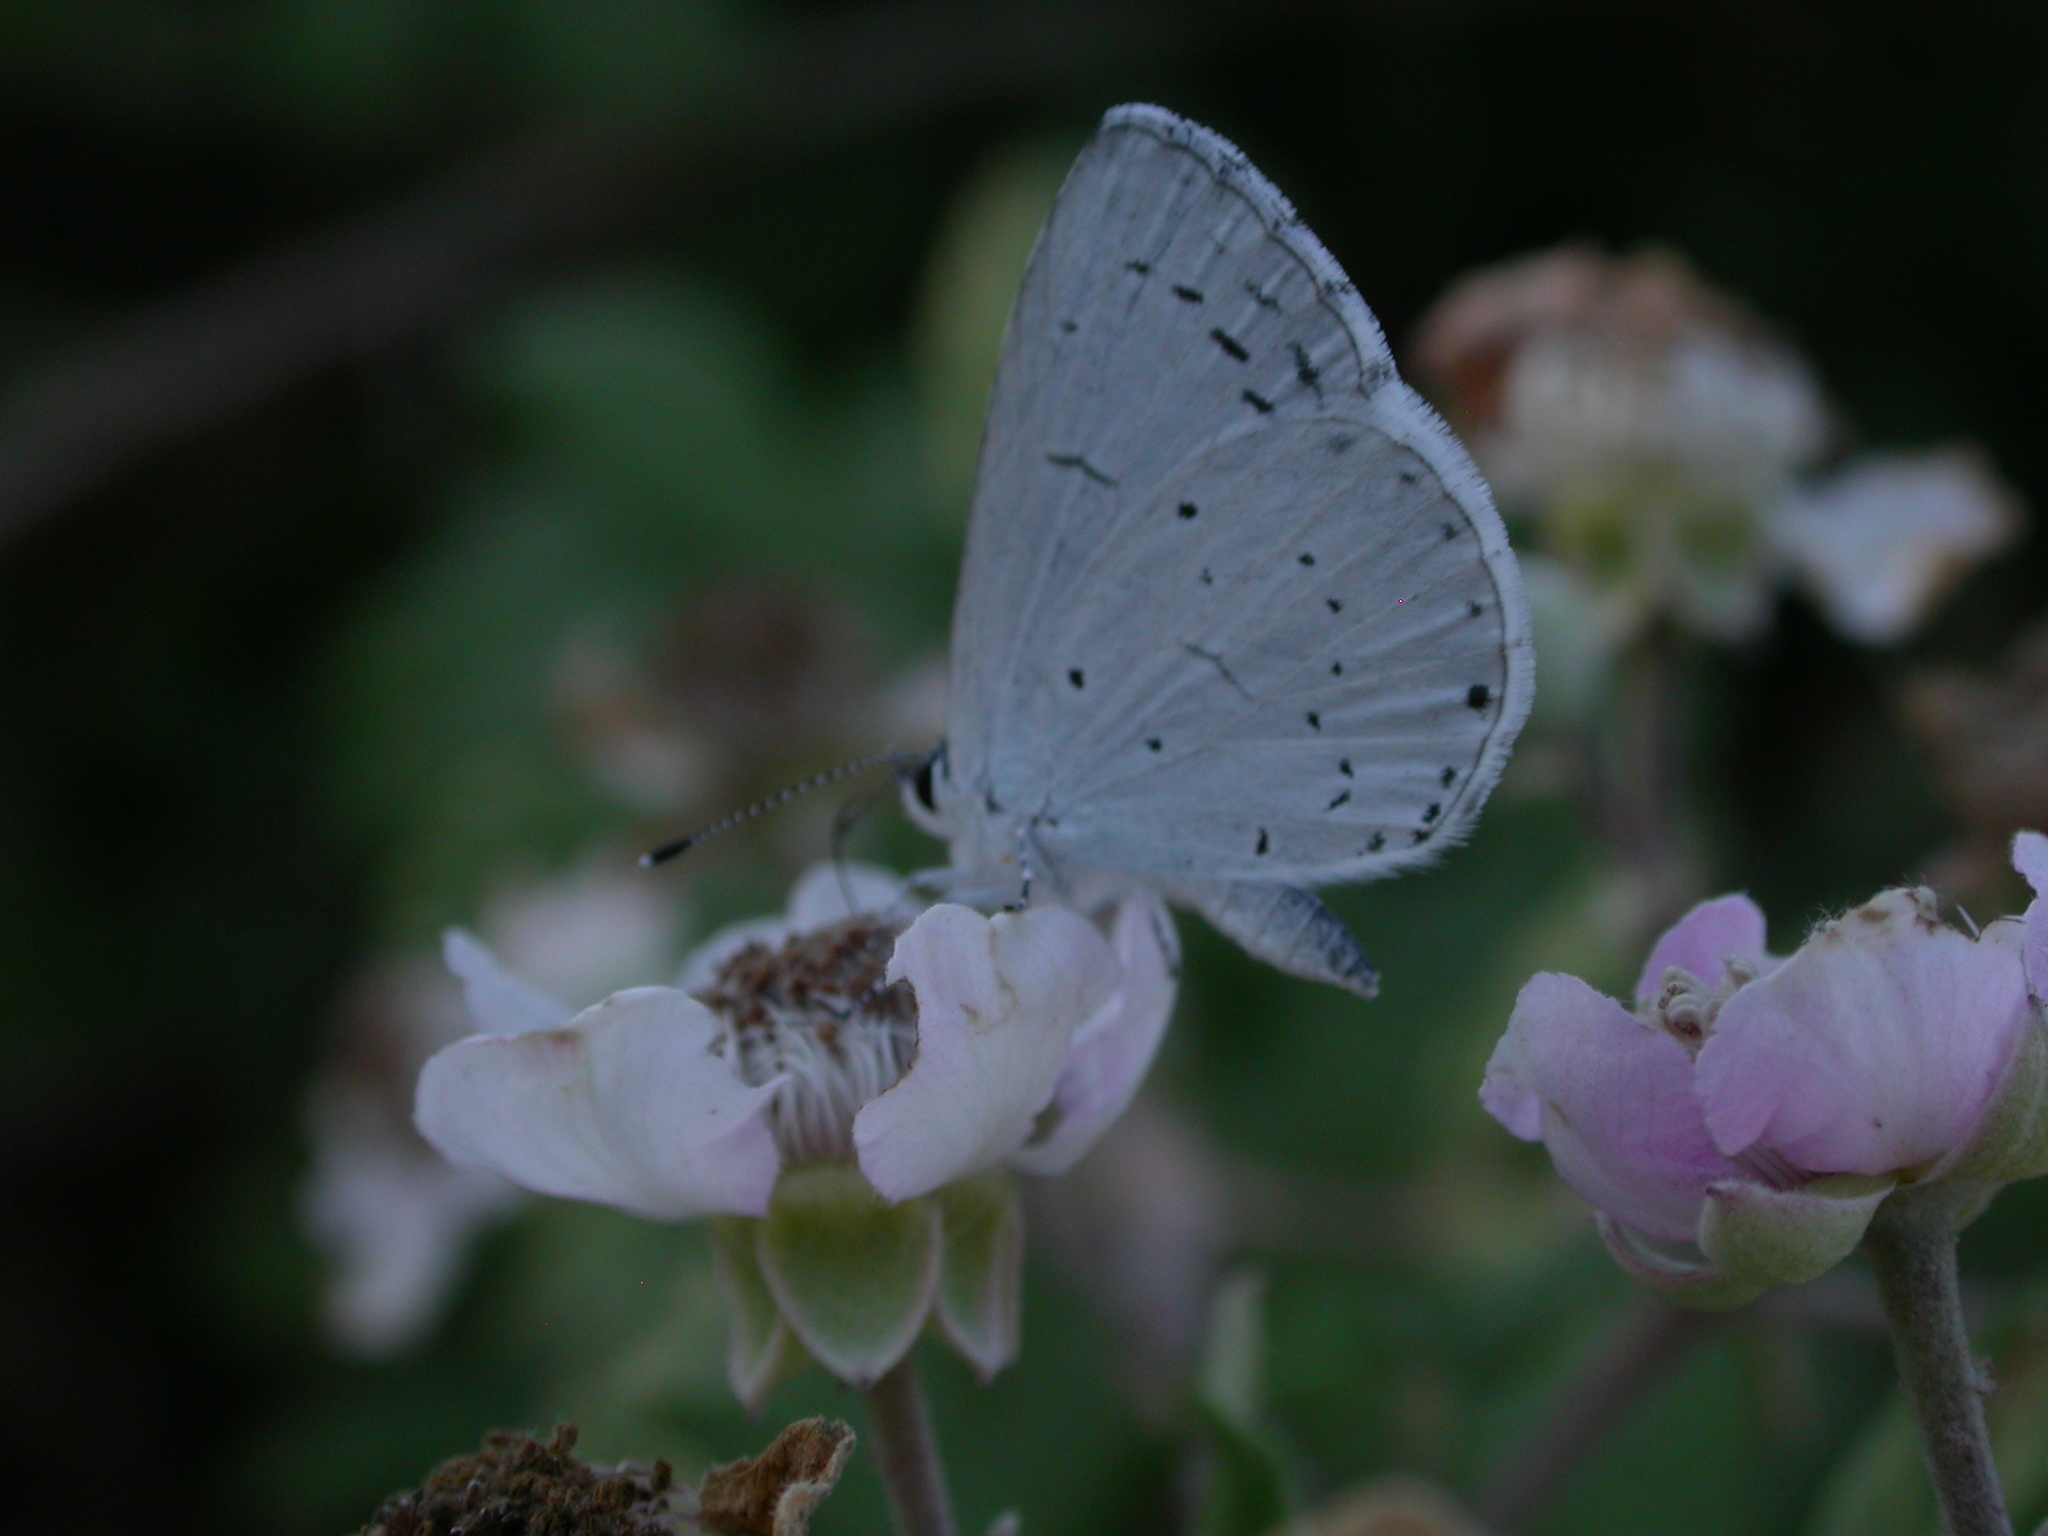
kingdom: Animalia
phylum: Arthropoda
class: Insecta
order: Lepidoptera
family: Lycaenidae
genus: Celastrina
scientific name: Celastrina argiolus
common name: Holly blue
